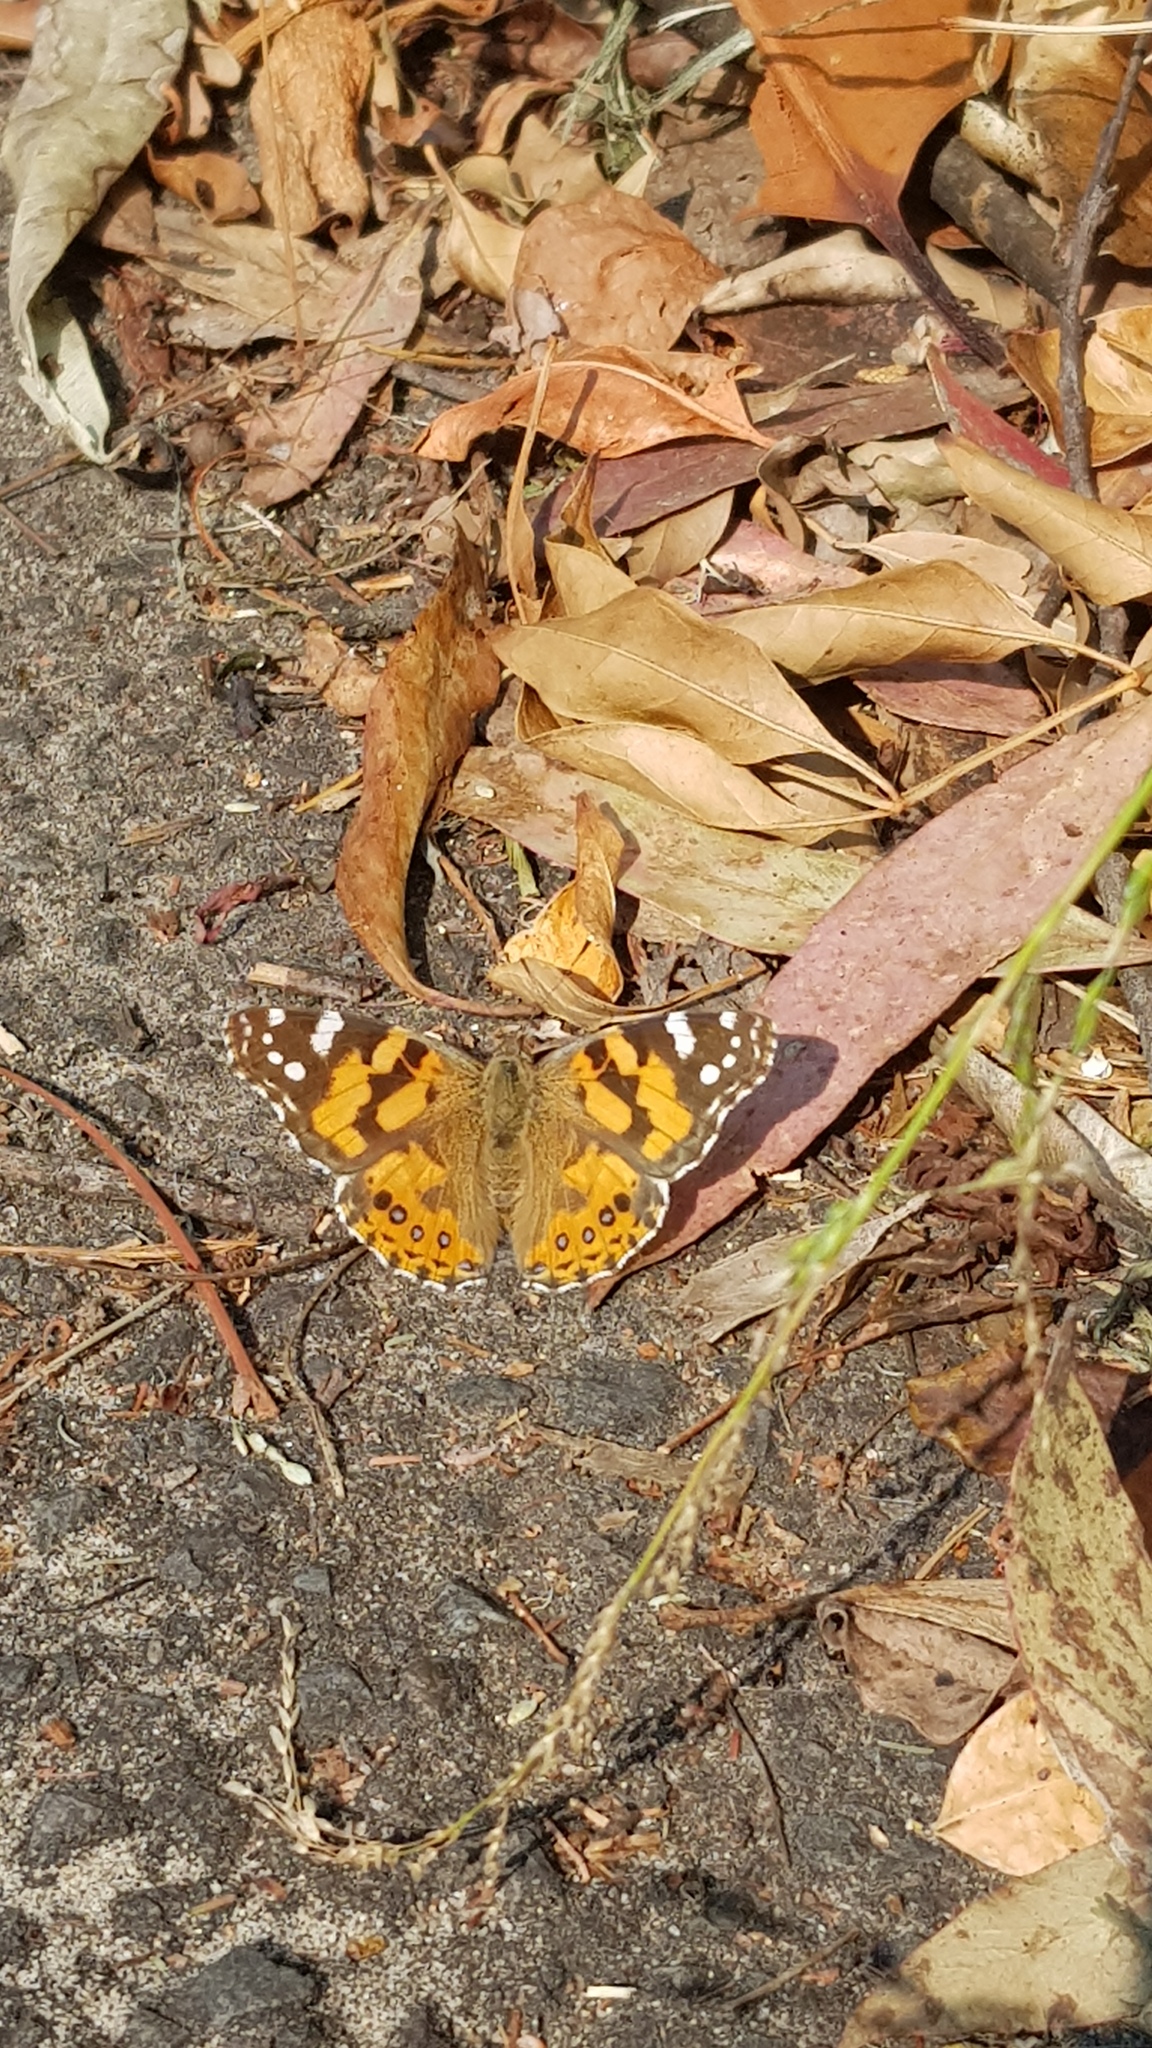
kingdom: Animalia
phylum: Arthropoda
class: Insecta
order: Lepidoptera
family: Nymphalidae
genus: Vanessa
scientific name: Vanessa kershawi
